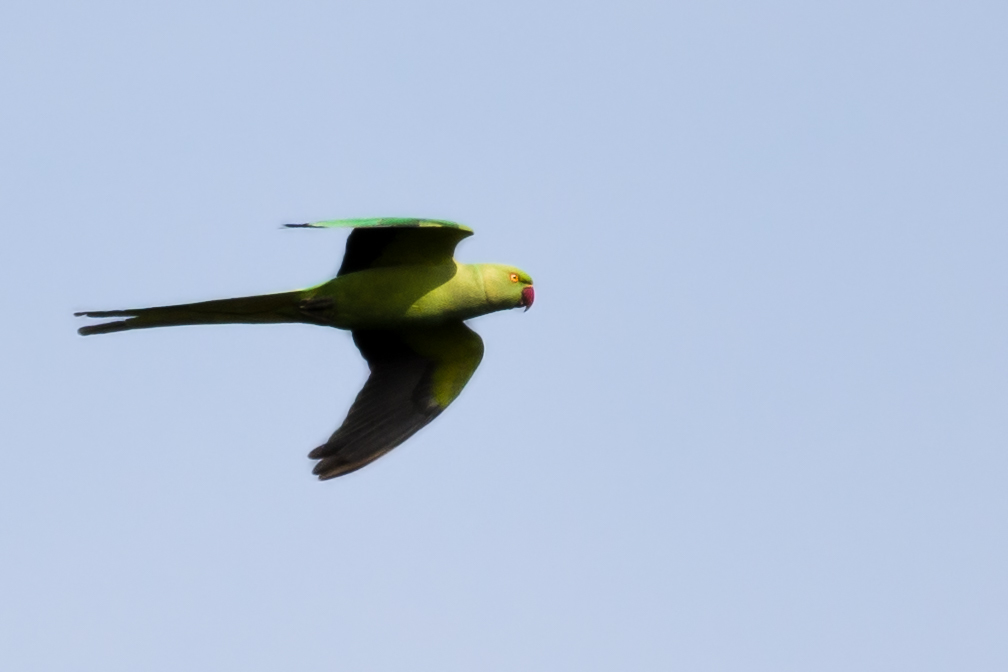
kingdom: Animalia
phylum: Chordata
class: Aves
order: Psittaciformes
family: Psittacidae
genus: Psittacula
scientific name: Psittacula krameri
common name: Rose-ringed parakeet
